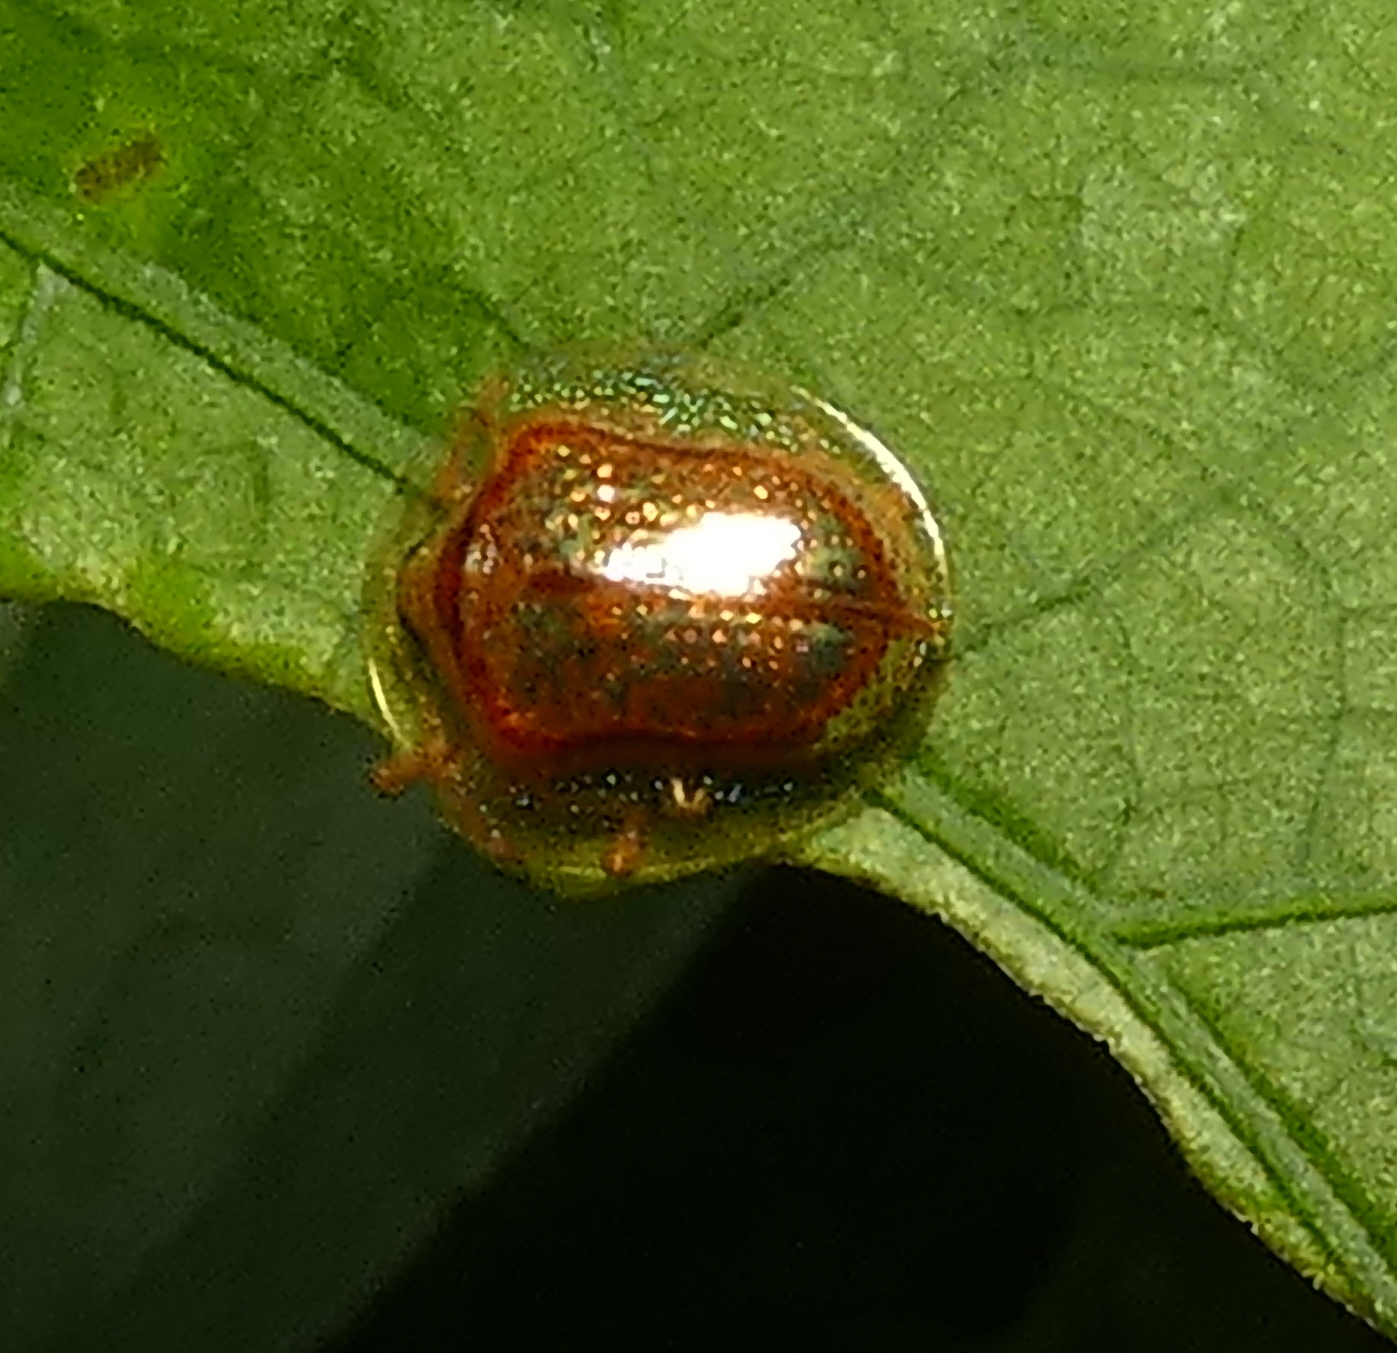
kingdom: Animalia
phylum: Arthropoda
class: Insecta
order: Coleoptera
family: Chrysomelidae
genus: Microctenochira
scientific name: Microctenochira quadrata
